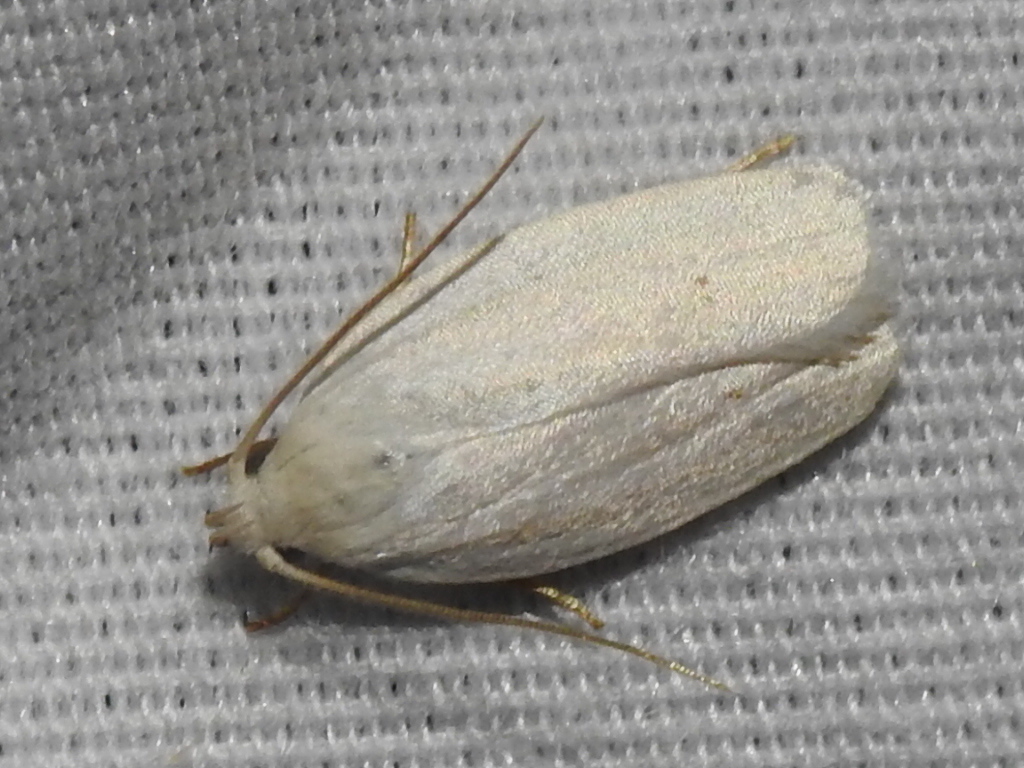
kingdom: Animalia
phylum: Arthropoda
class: Insecta
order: Lepidoptera
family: Depressariidae
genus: Antaeotricha
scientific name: Antaeotricha albulella
